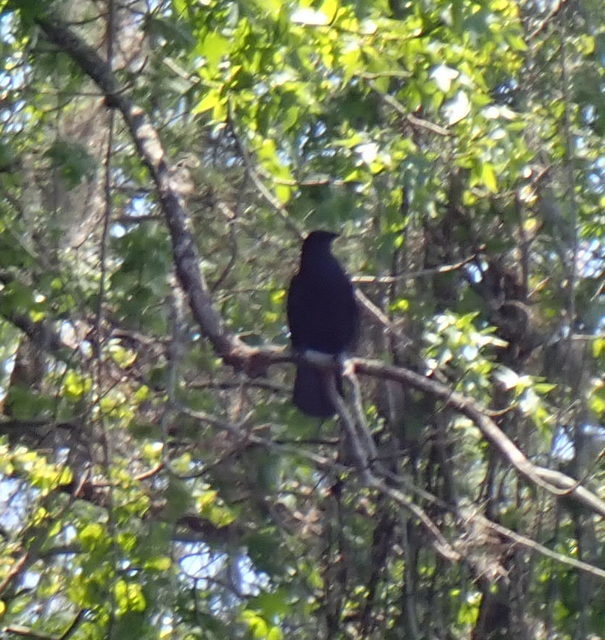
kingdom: Animalia
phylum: Chordata
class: Aves
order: Passeriformes
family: Corvidae
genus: Corvus
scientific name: Corvus
